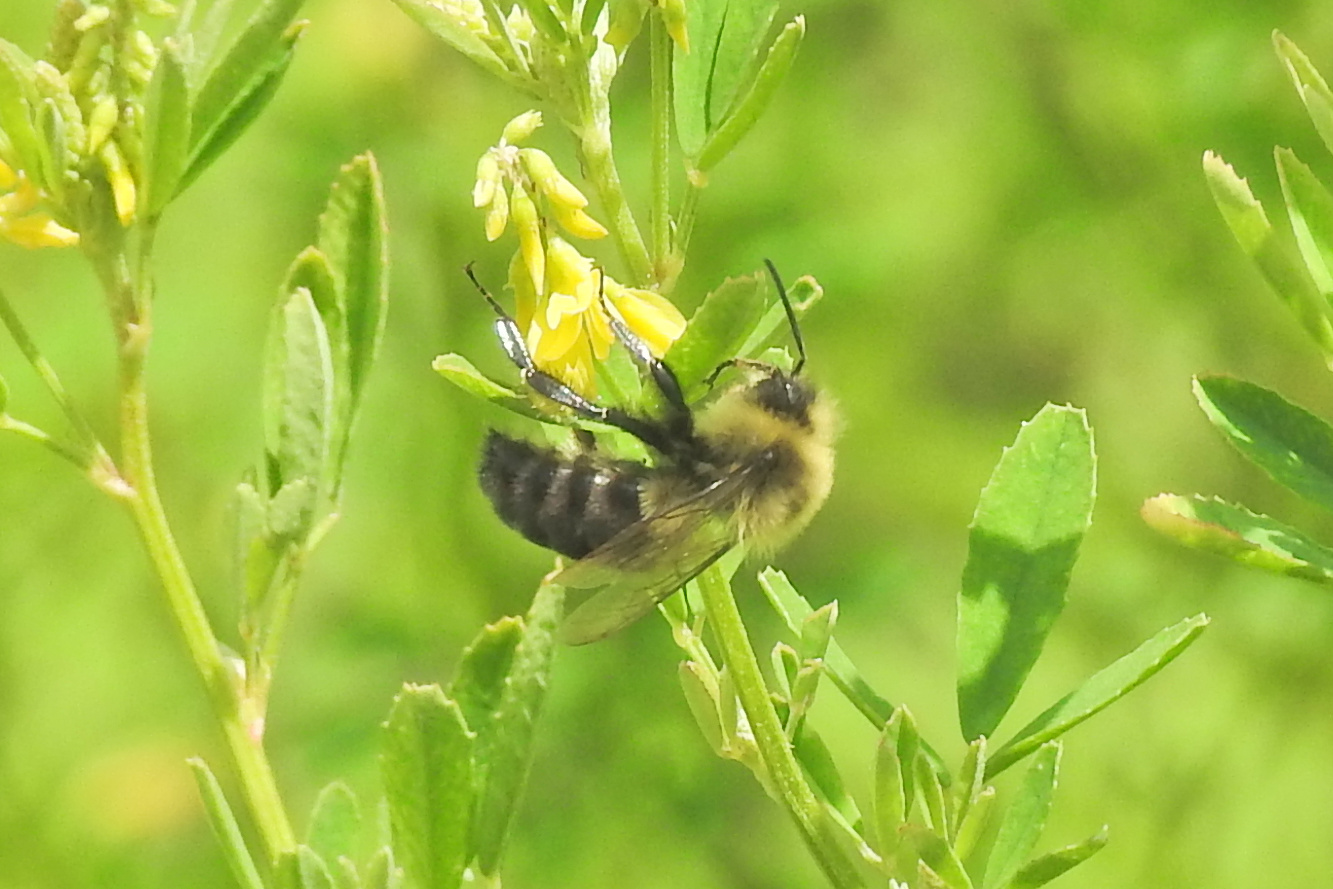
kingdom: Animalia
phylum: Arthropoda
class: Insecta
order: Hymenoptera
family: Apidae
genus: Bombus
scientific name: Bombus impatiens
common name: Common eastern bumble bee
